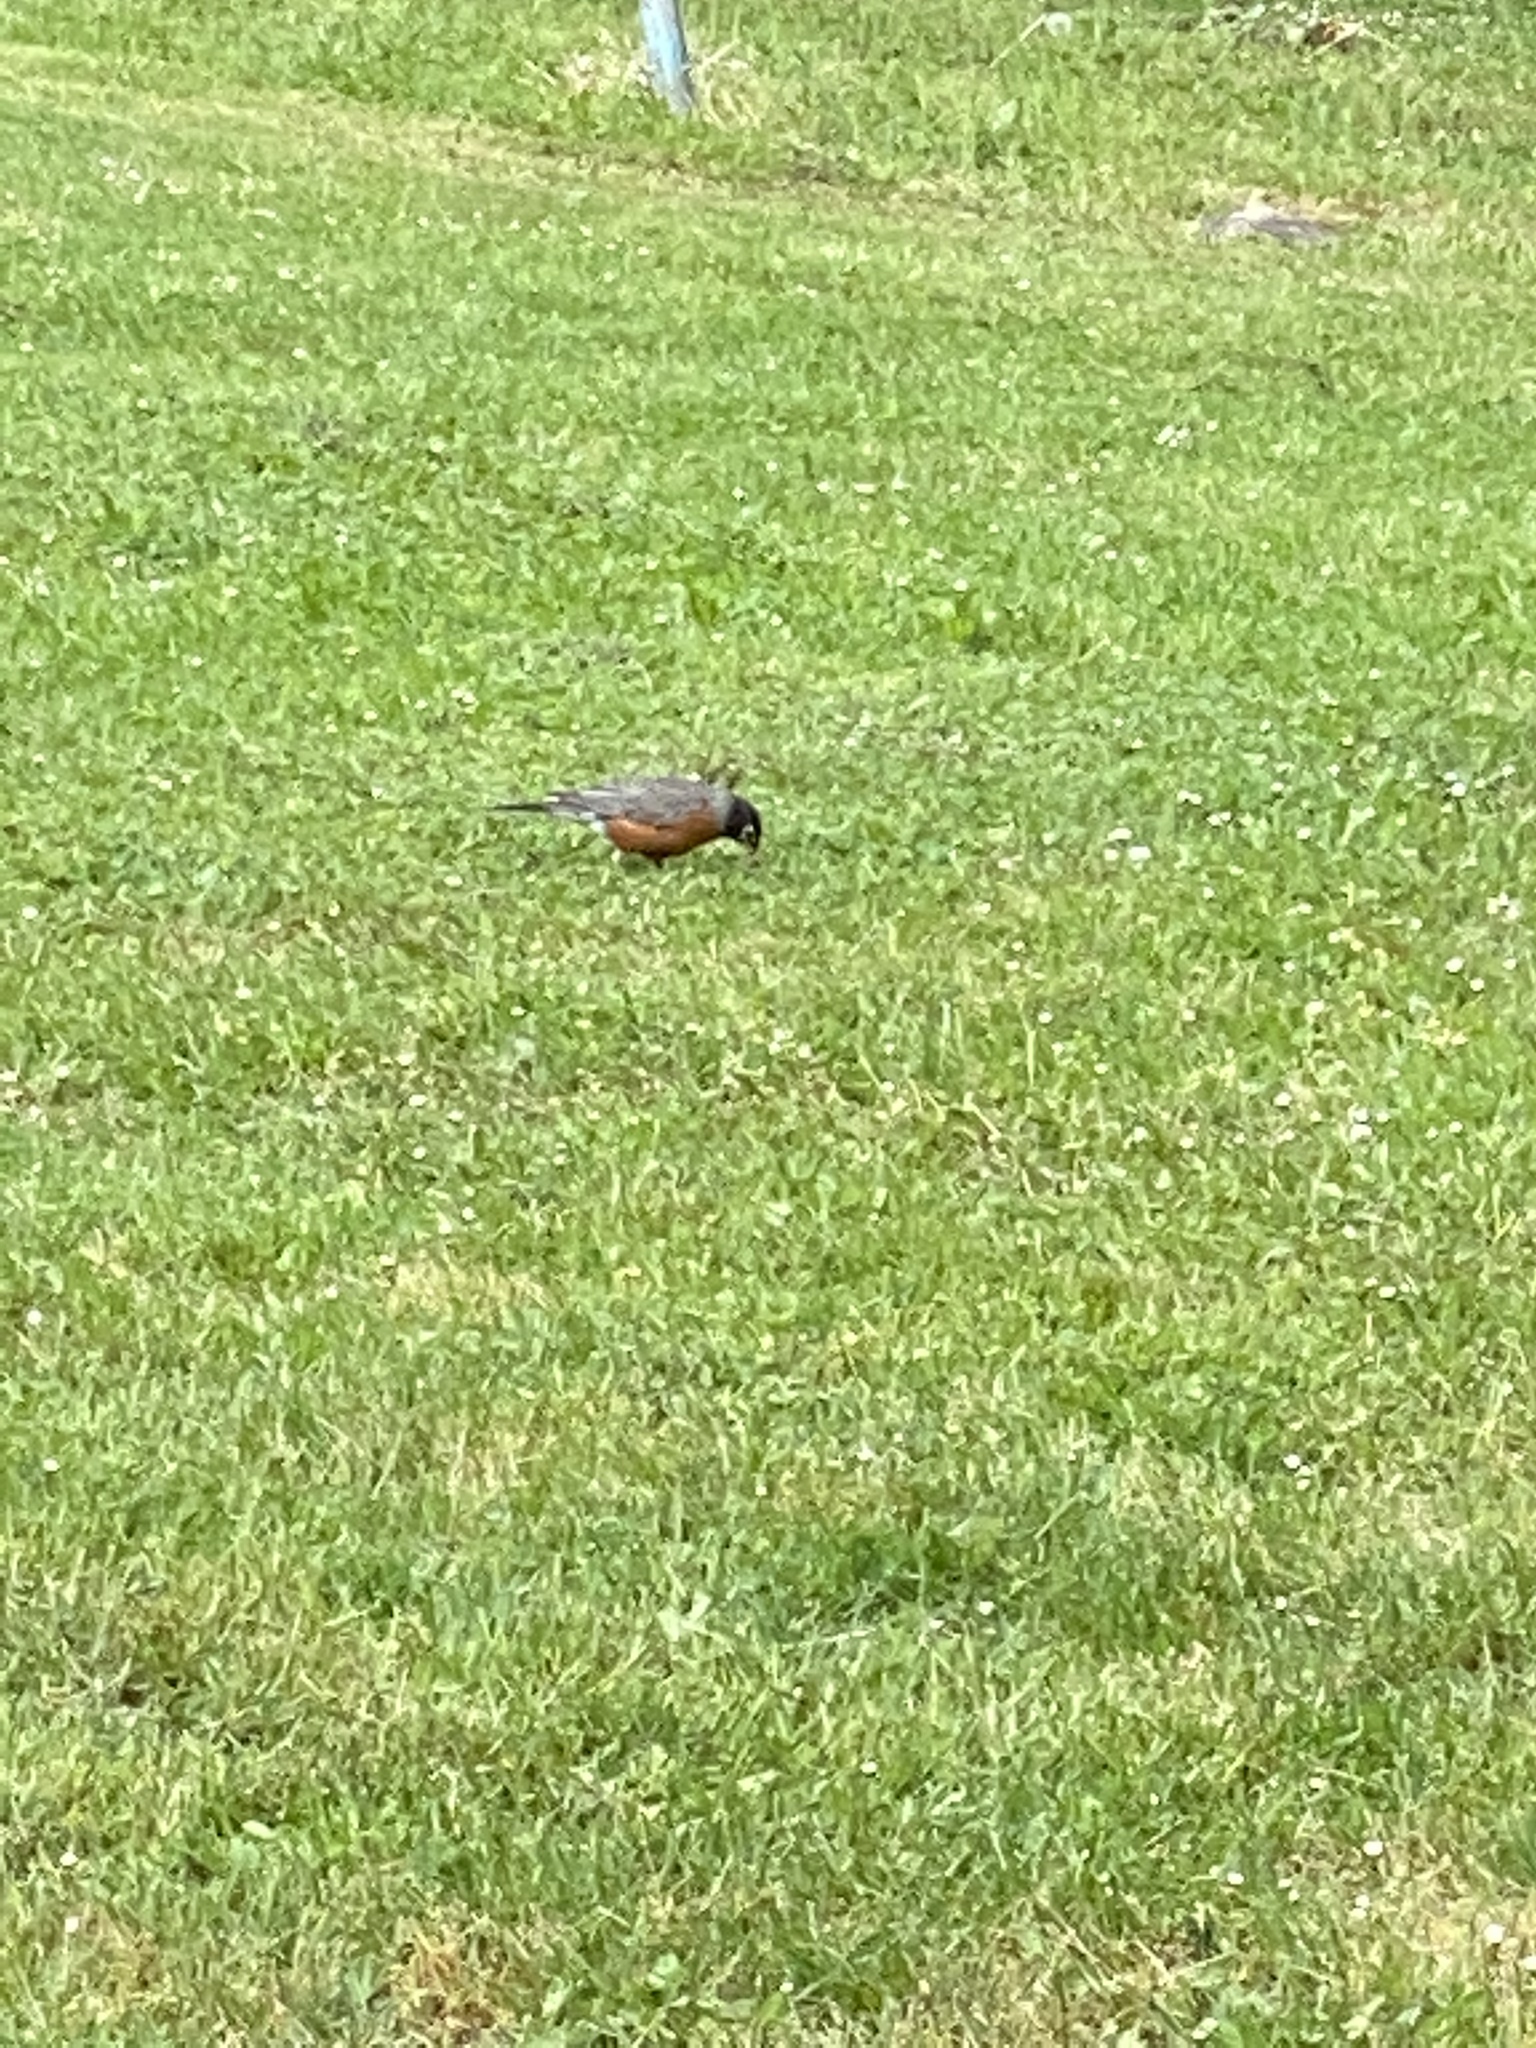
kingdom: Animalia
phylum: Chordata
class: Aves
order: Passeriformes
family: Turdidae
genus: Turdus
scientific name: Turdus migratorius
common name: American robin
